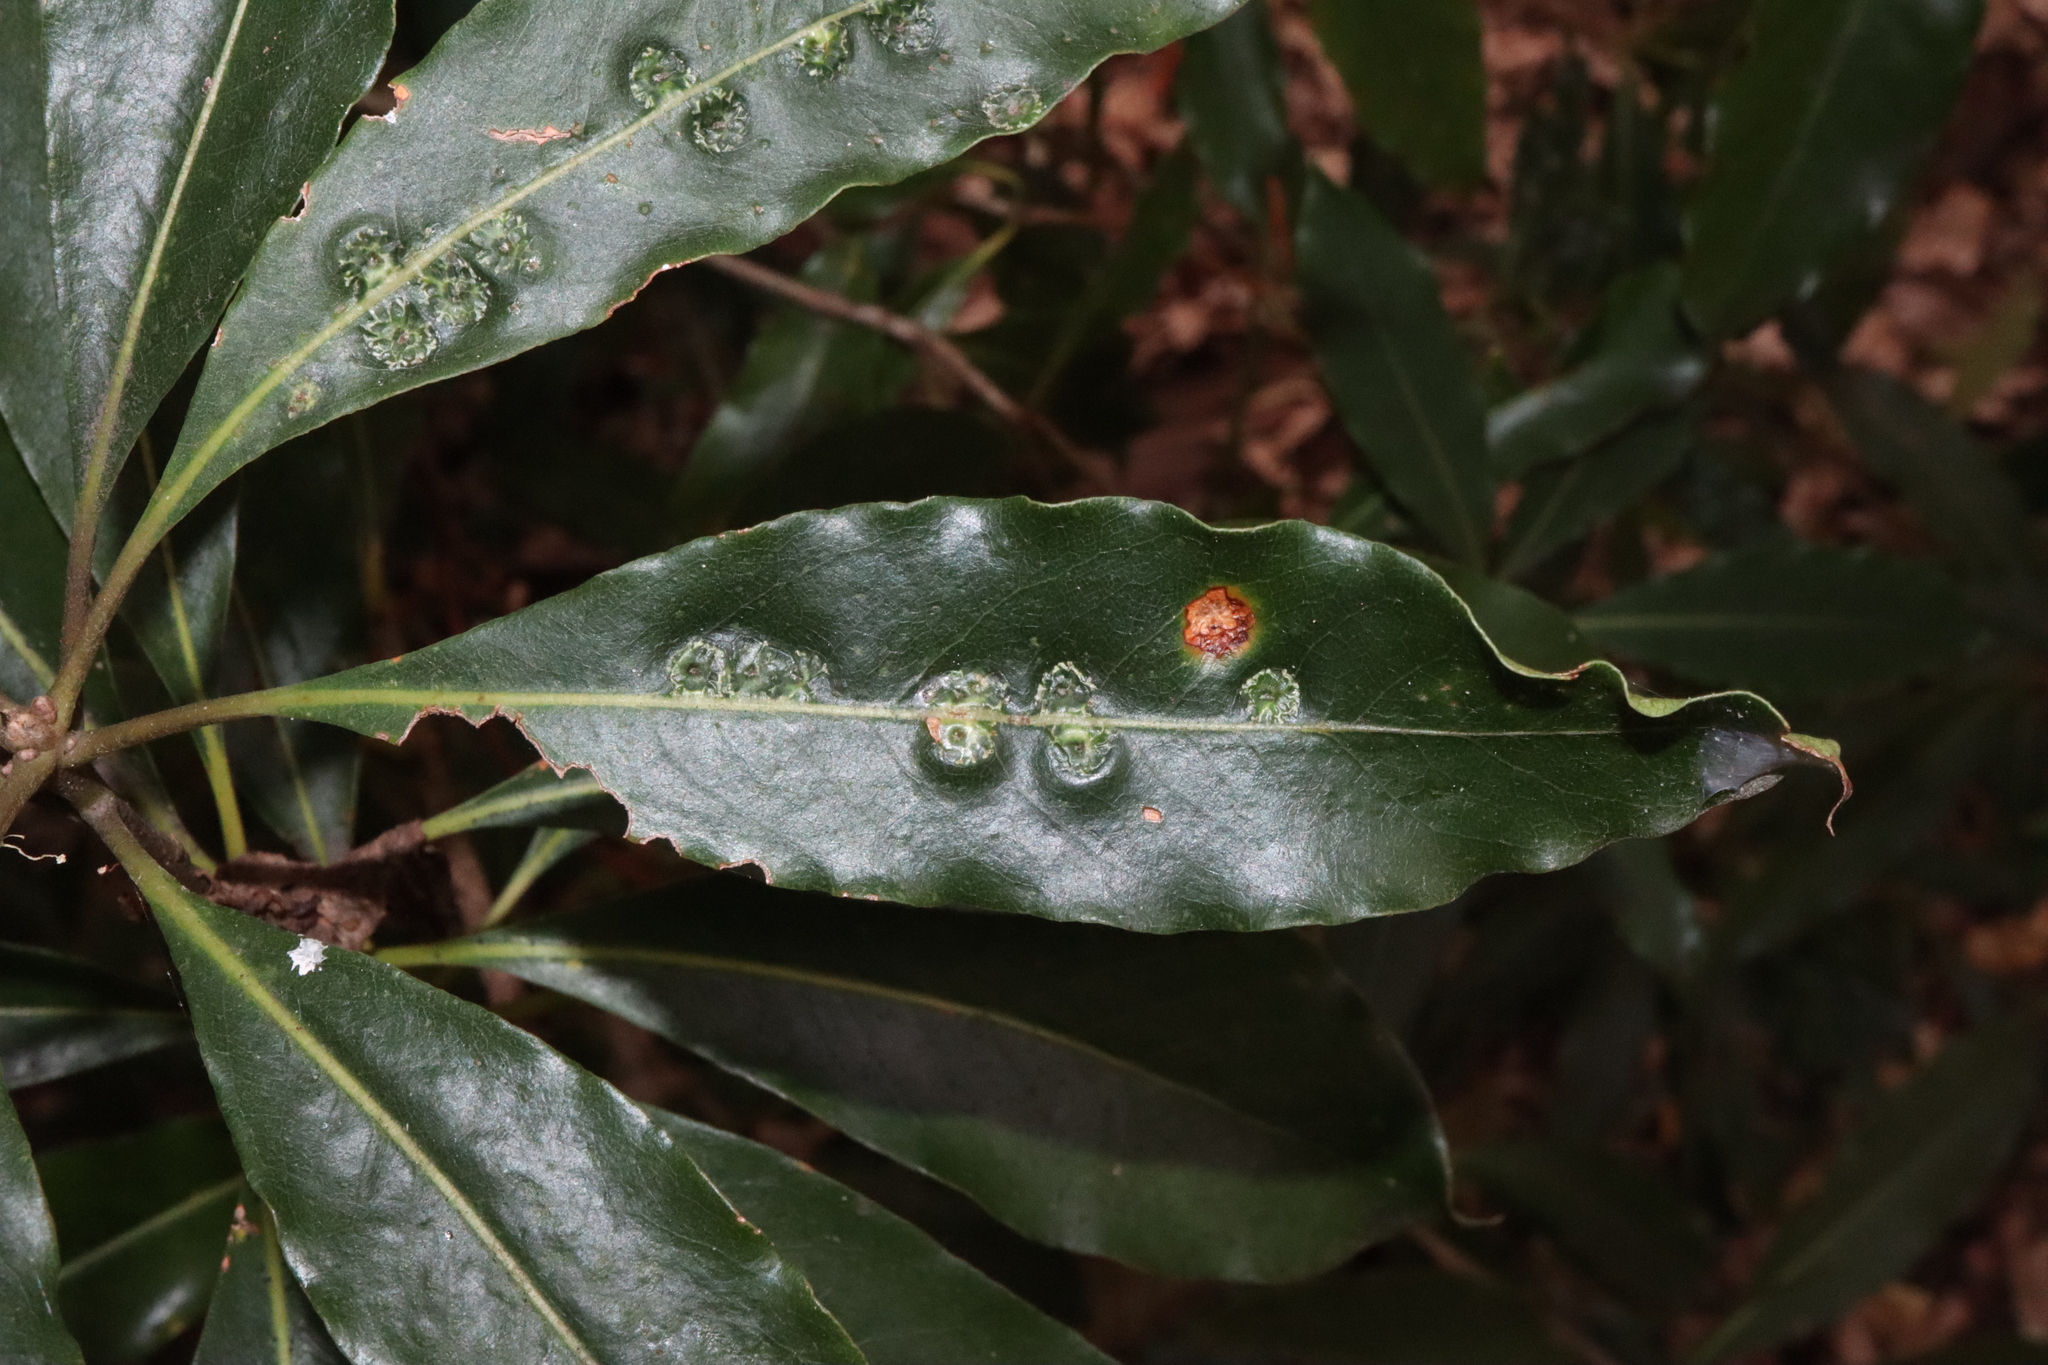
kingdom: Animalia
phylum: Arthropoda
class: Insecta
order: Diptera
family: Agromyzidae
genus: Phytoliriomyza
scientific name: Phytoliriomyza pittosporophylli
